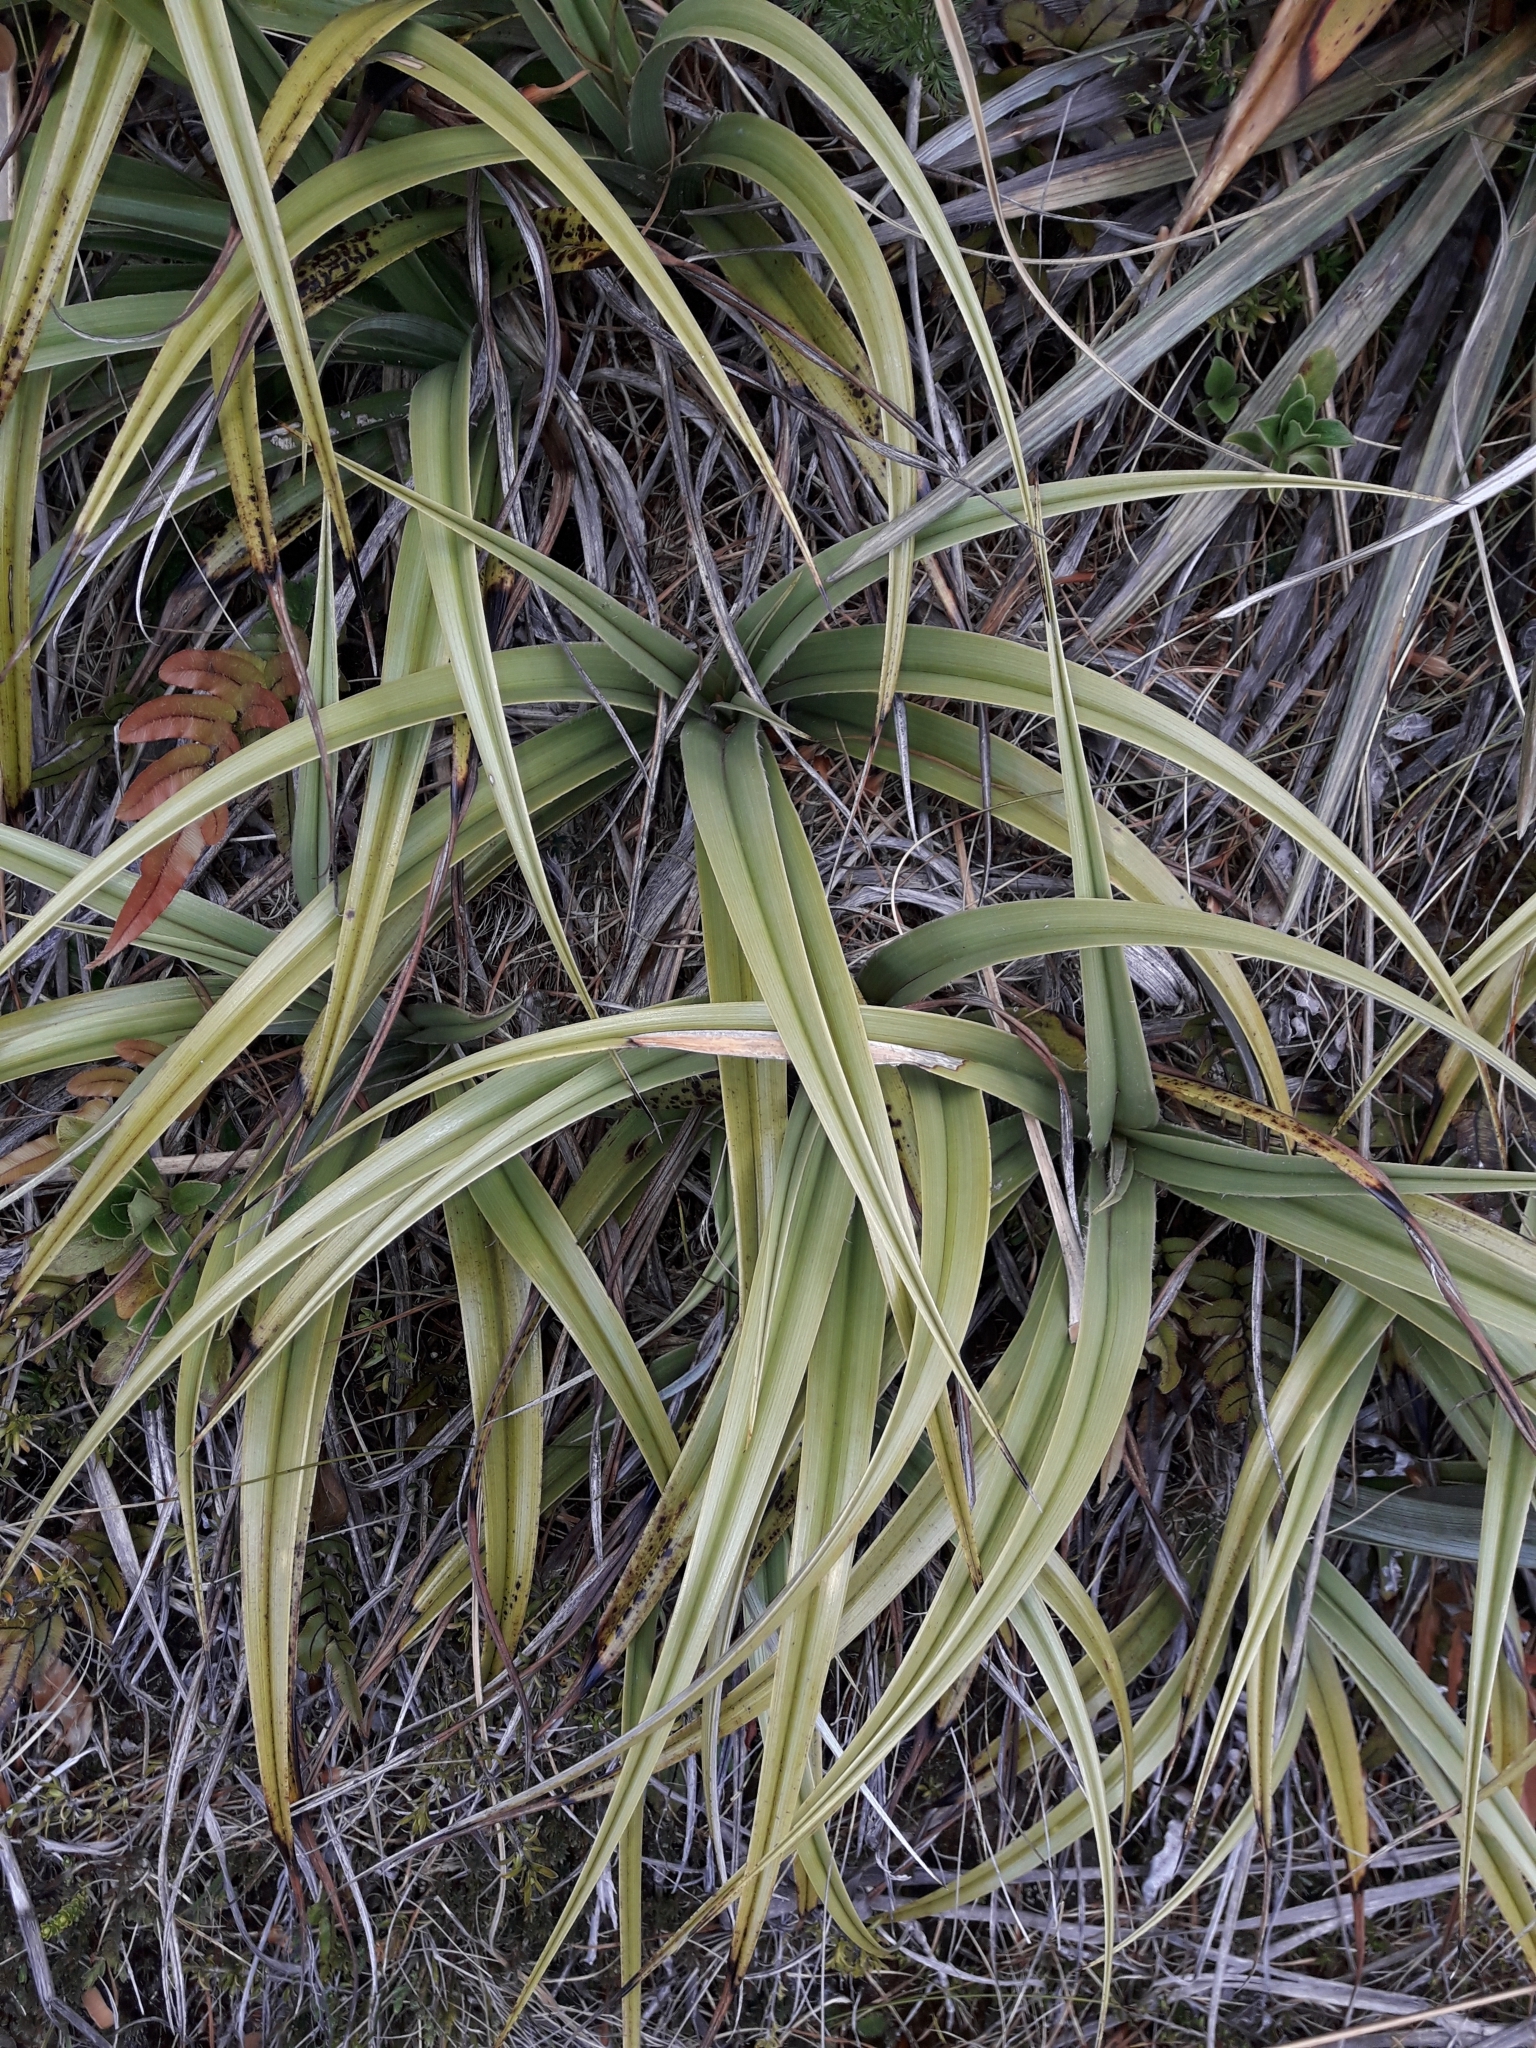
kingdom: Plantae
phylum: Tracheophyta
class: Liliopsida
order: Asparagales
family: Asteliaceae
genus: Astelia
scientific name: Astelia petriei
